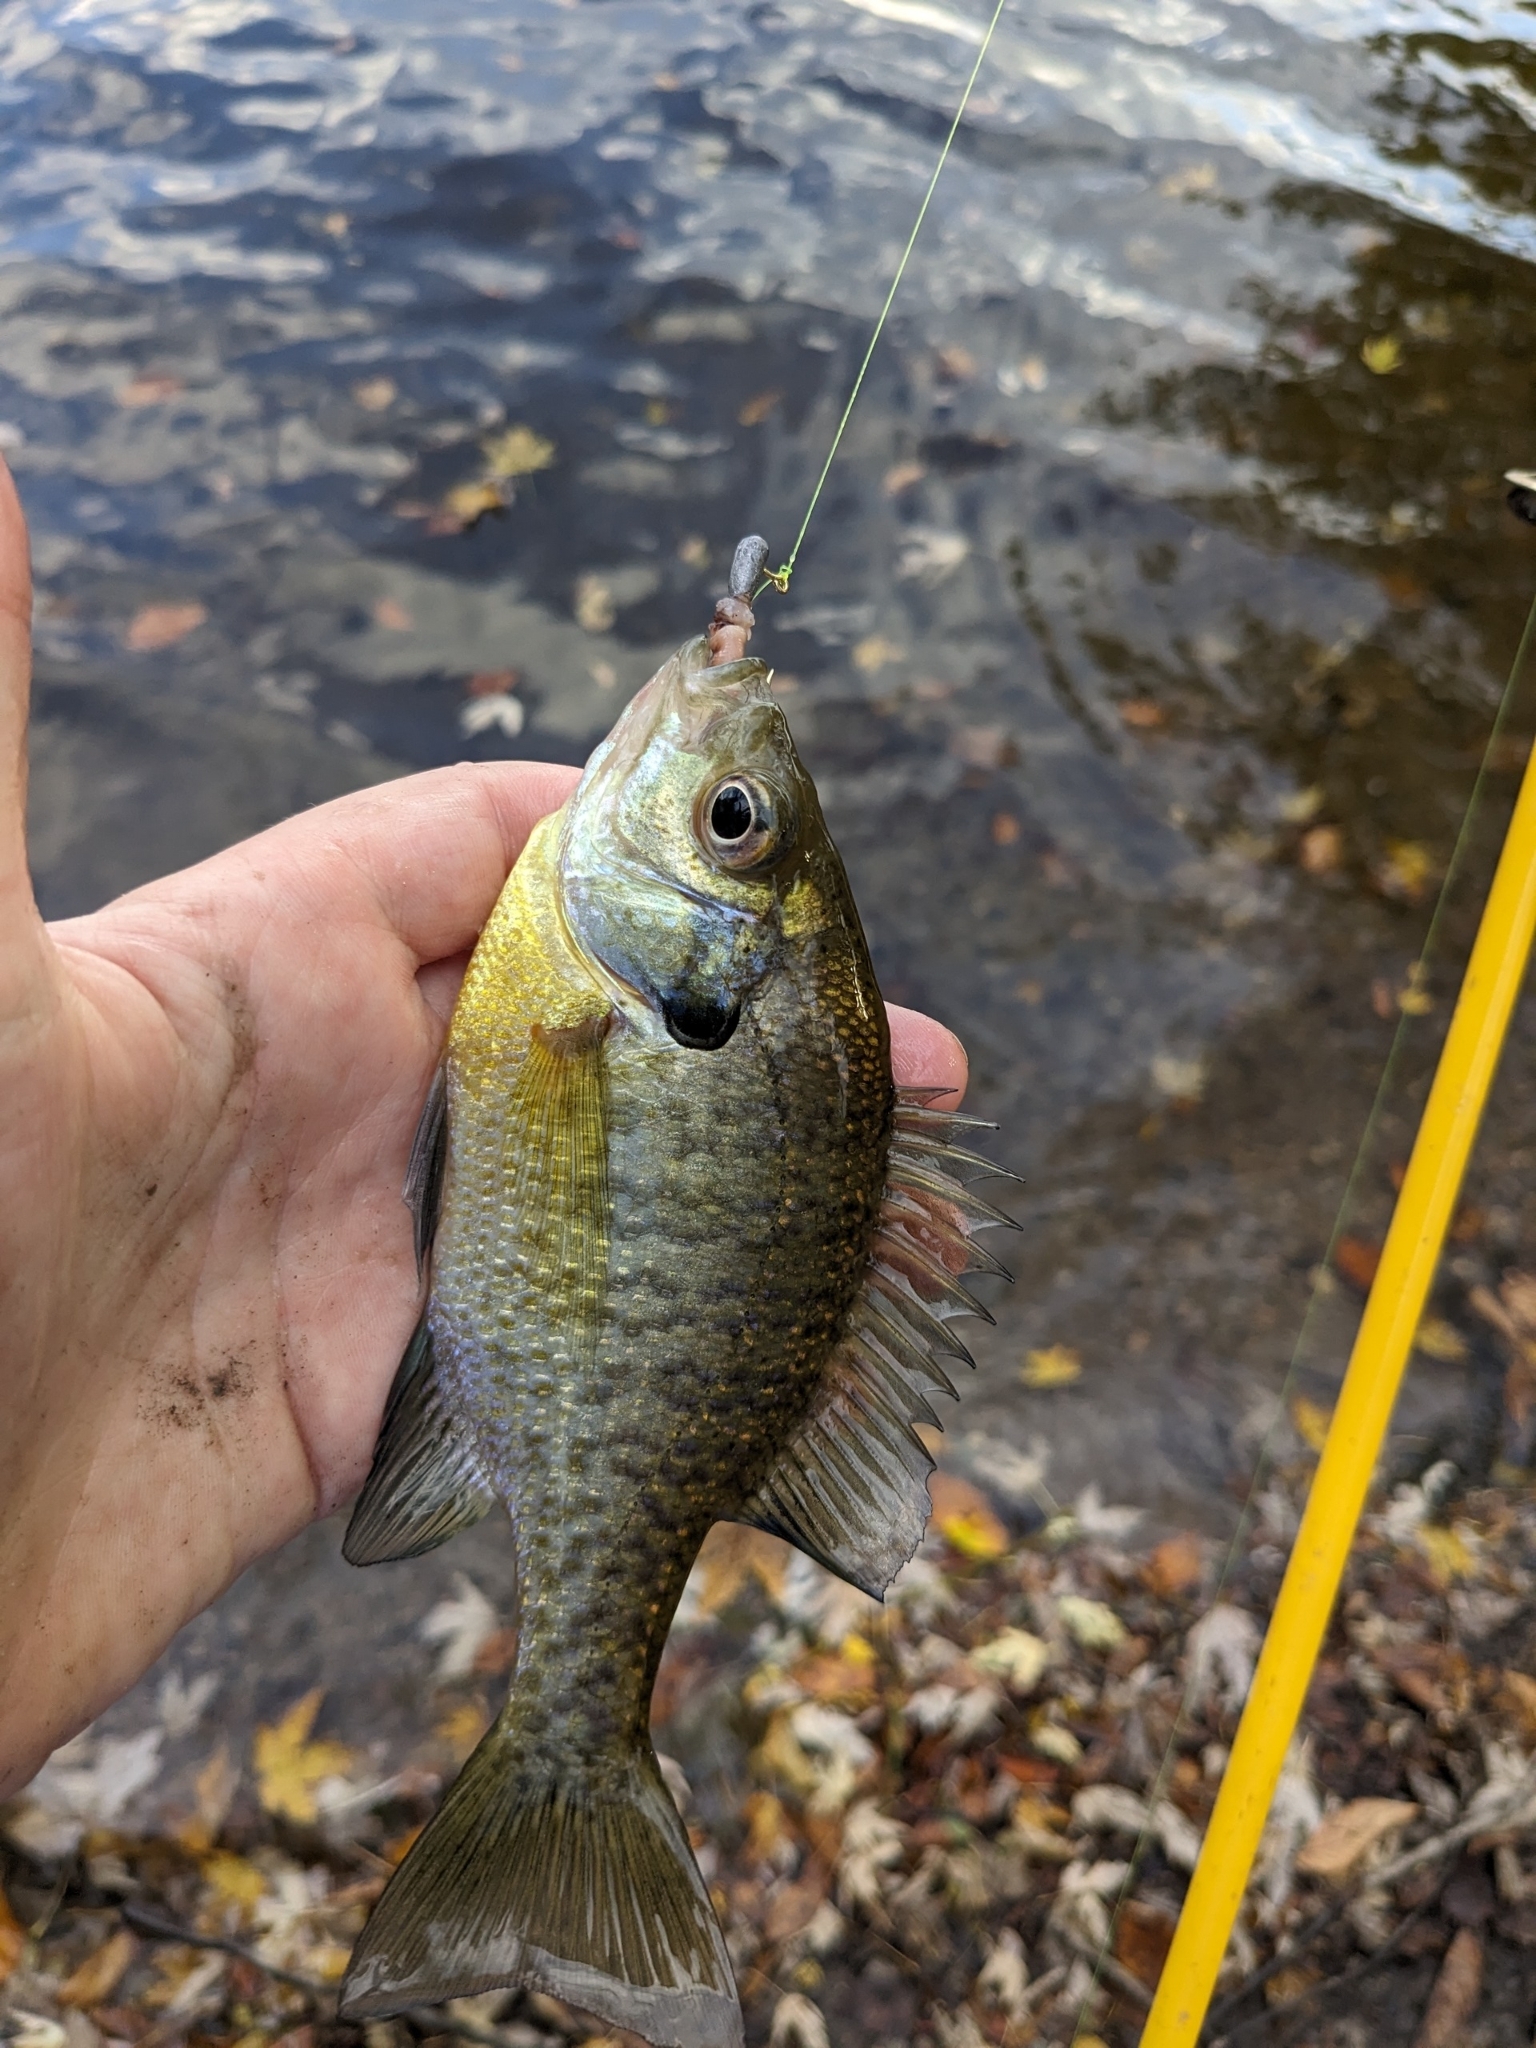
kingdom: Animalia
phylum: Chordata
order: Perciformes
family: Centrarchidae
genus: Lepomis
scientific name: Lepomis macrochirus
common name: Bluegill
